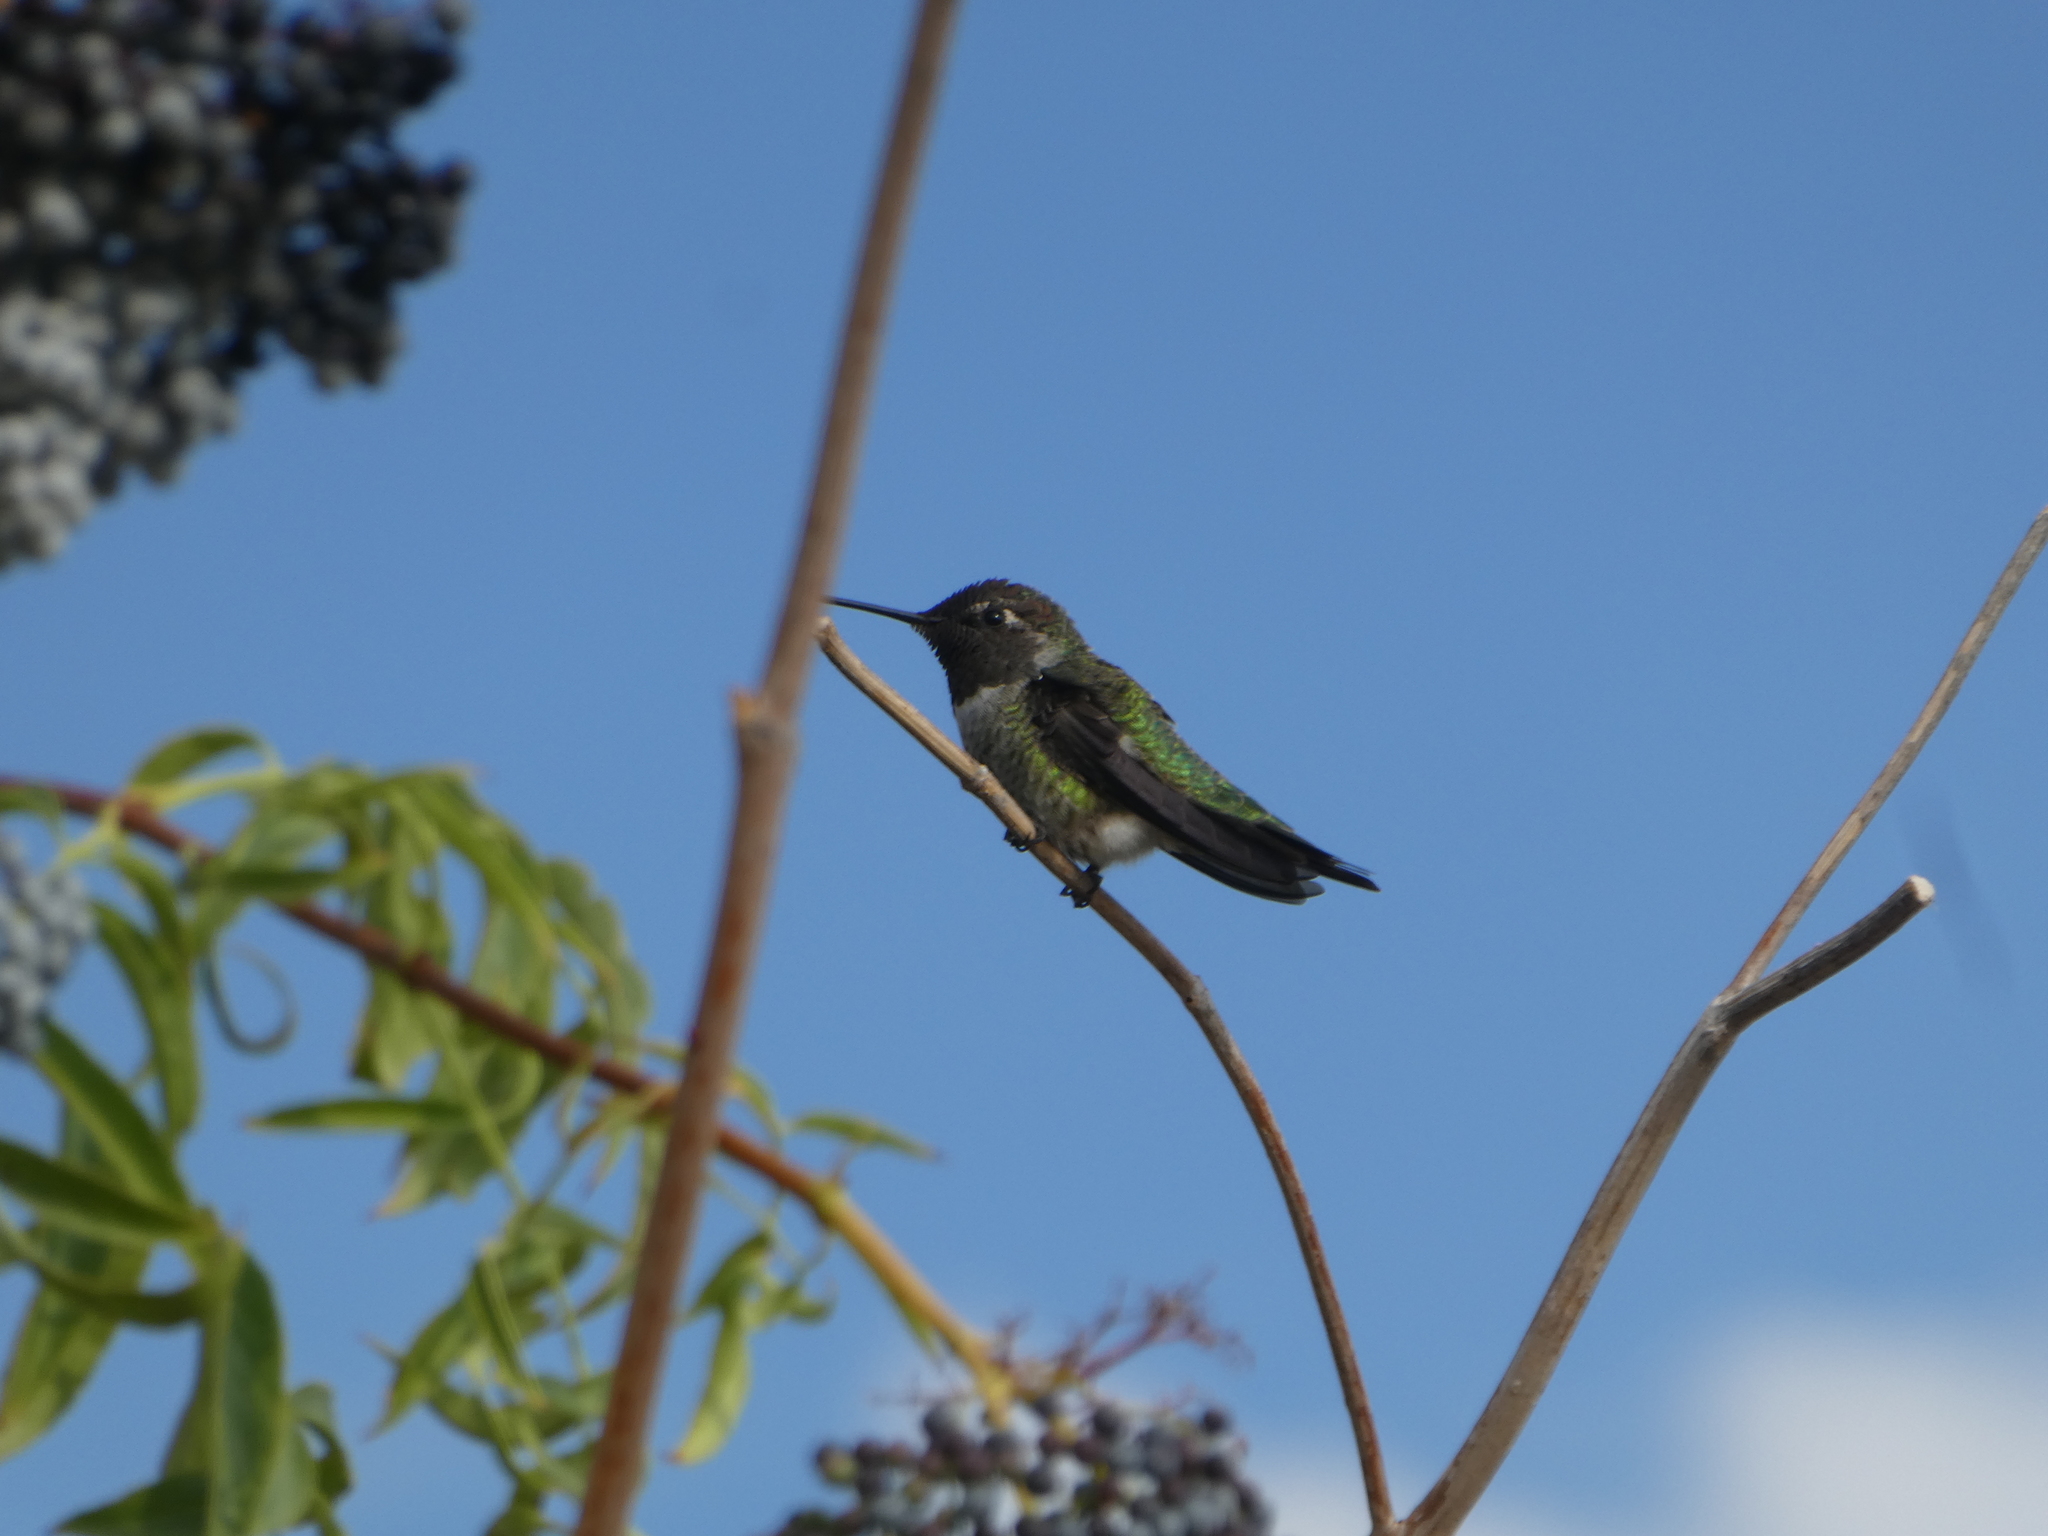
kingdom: Animalia
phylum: Chordata
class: Aves
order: Apodiformes
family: Trochilidae
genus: Calypte
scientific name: Calypte anna
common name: Anna's hummingbird
